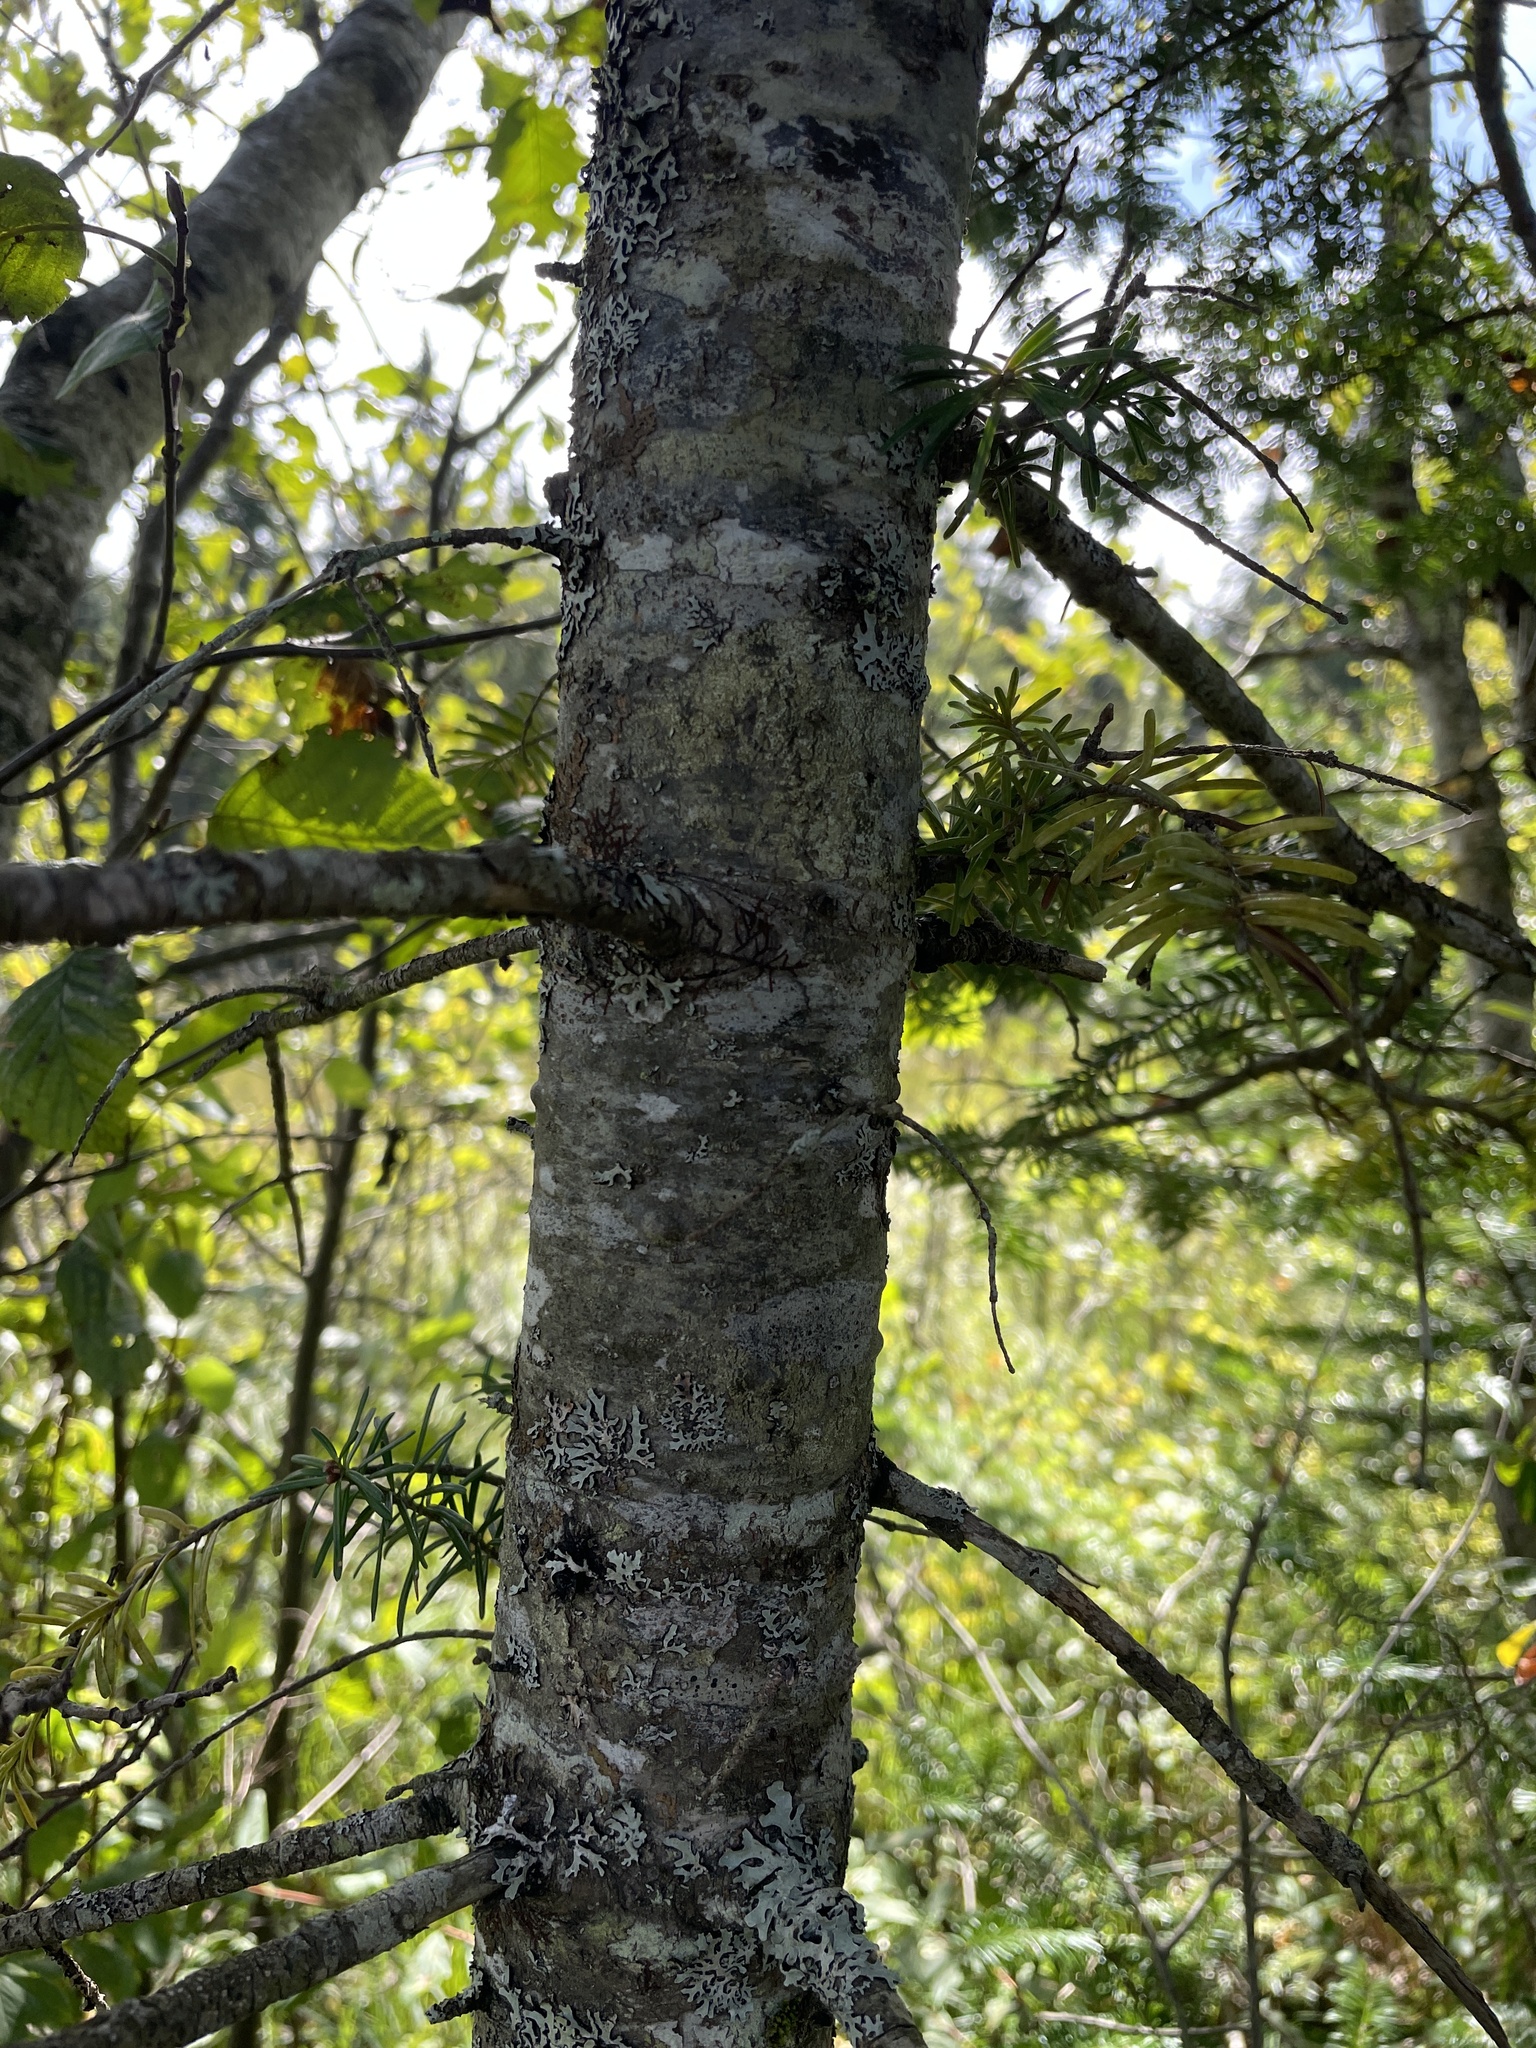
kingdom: Plantae
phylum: Tracheophyta
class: Pinopsida
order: Pinales
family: Pinaceae
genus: Abies
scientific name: Abies balsamea
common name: Balsam fir
